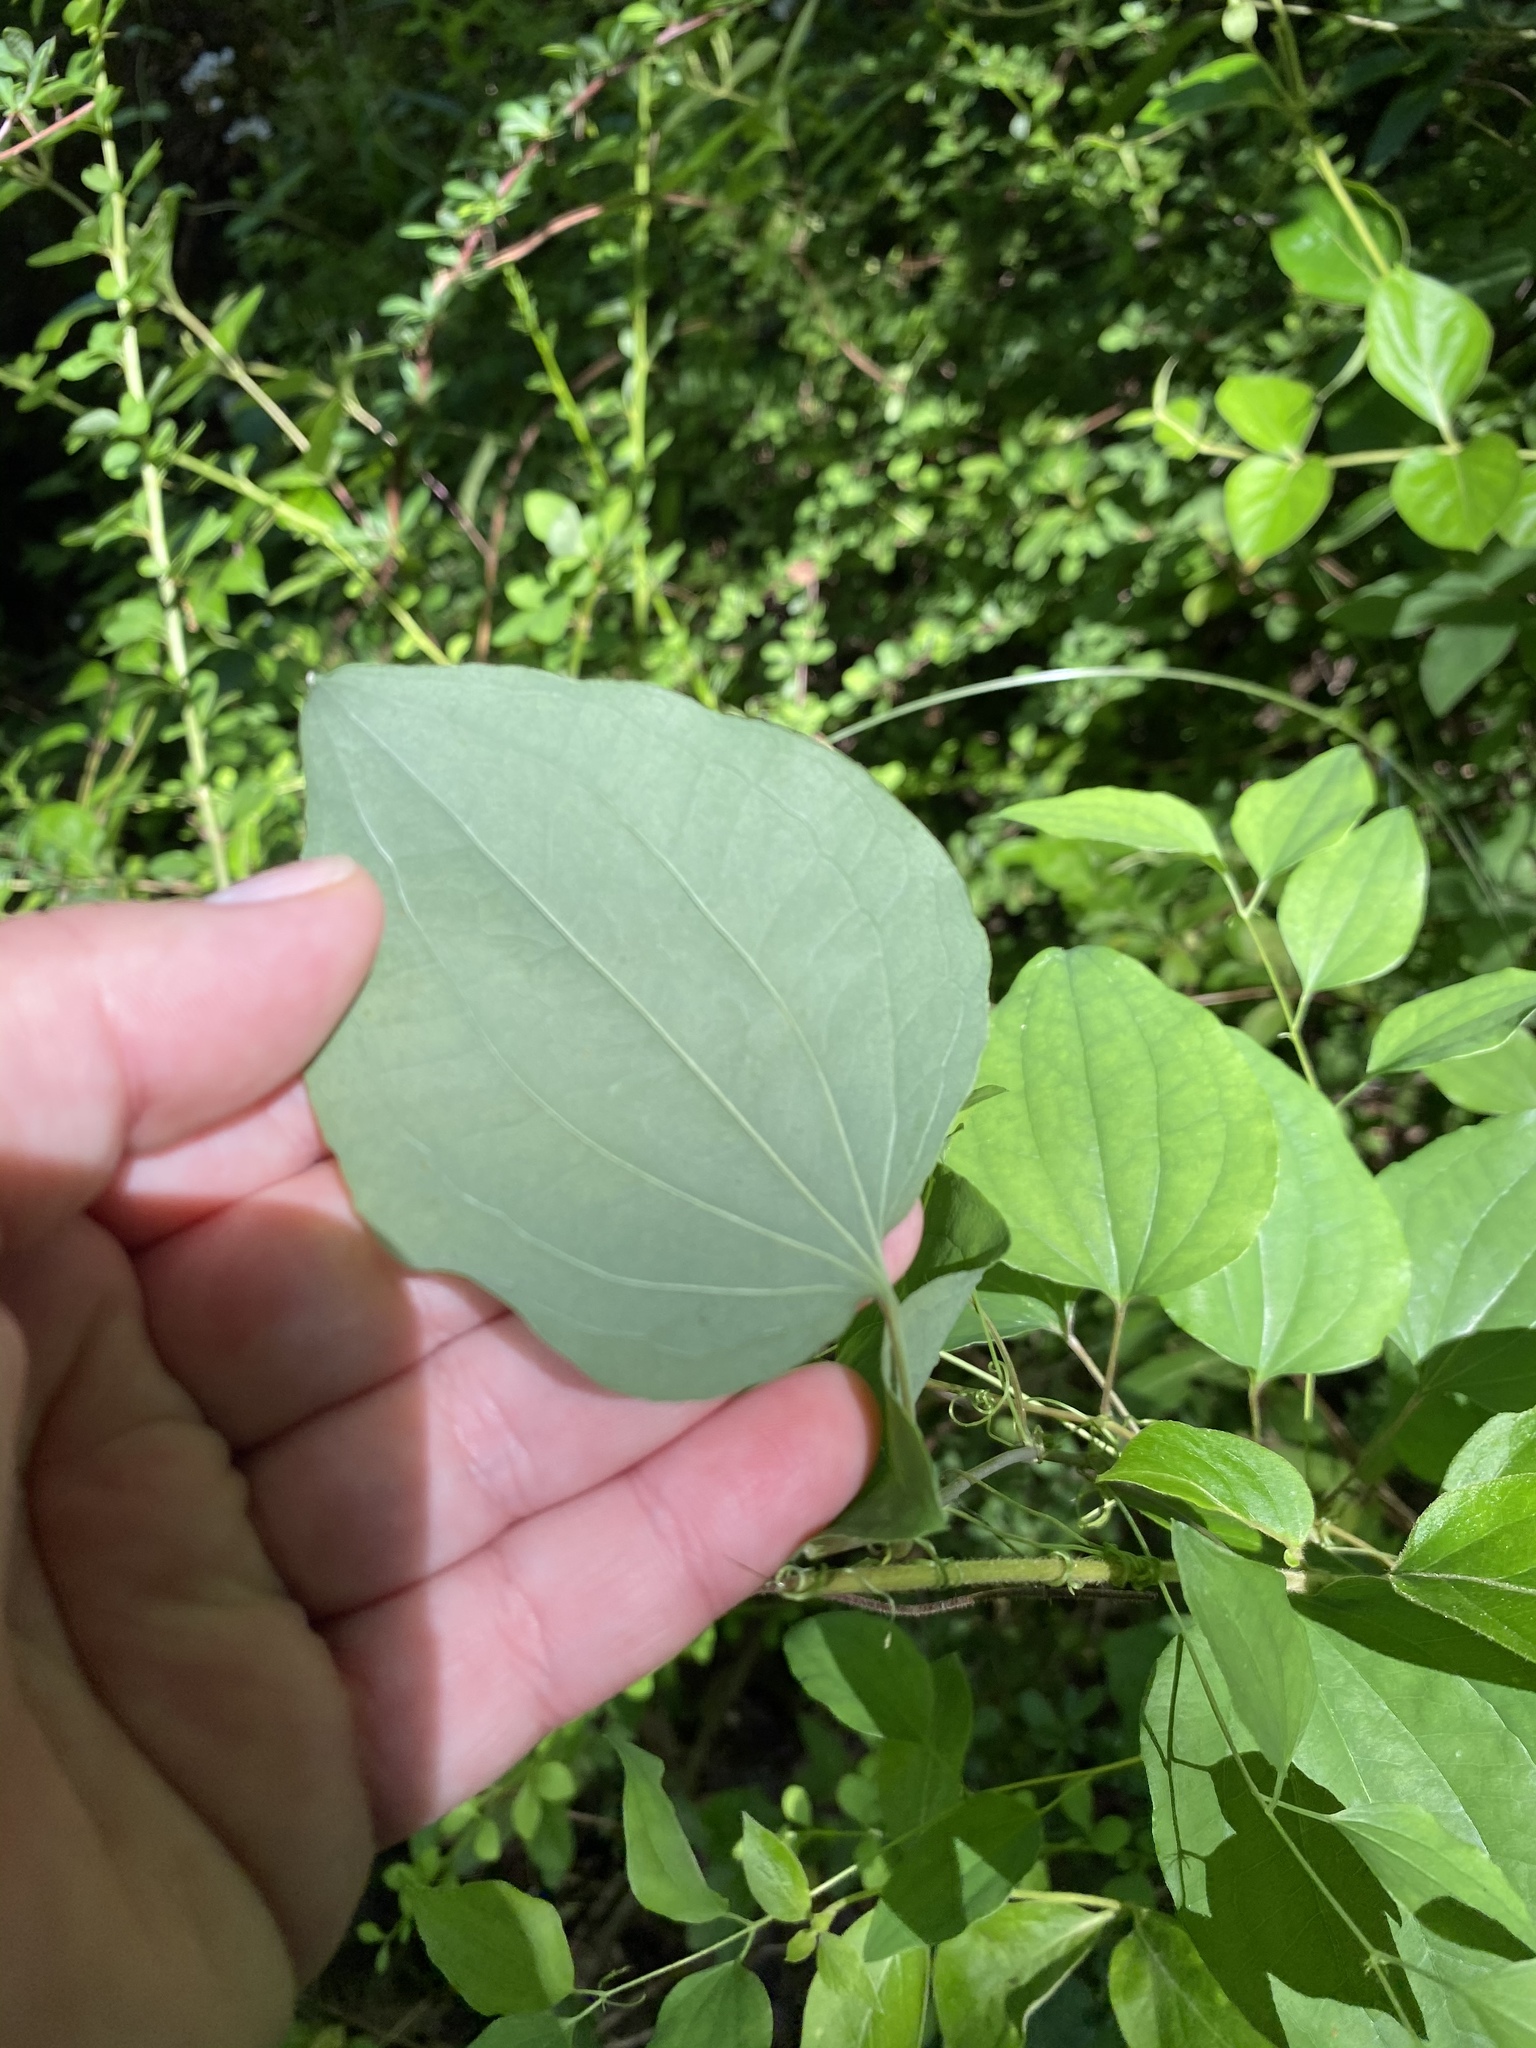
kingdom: Plantae
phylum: Tracheophyta
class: Liliopsida
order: Liliales
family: Smilacaceae
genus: Smilax
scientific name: Smilax herbacea
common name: Jacob's-ladder
